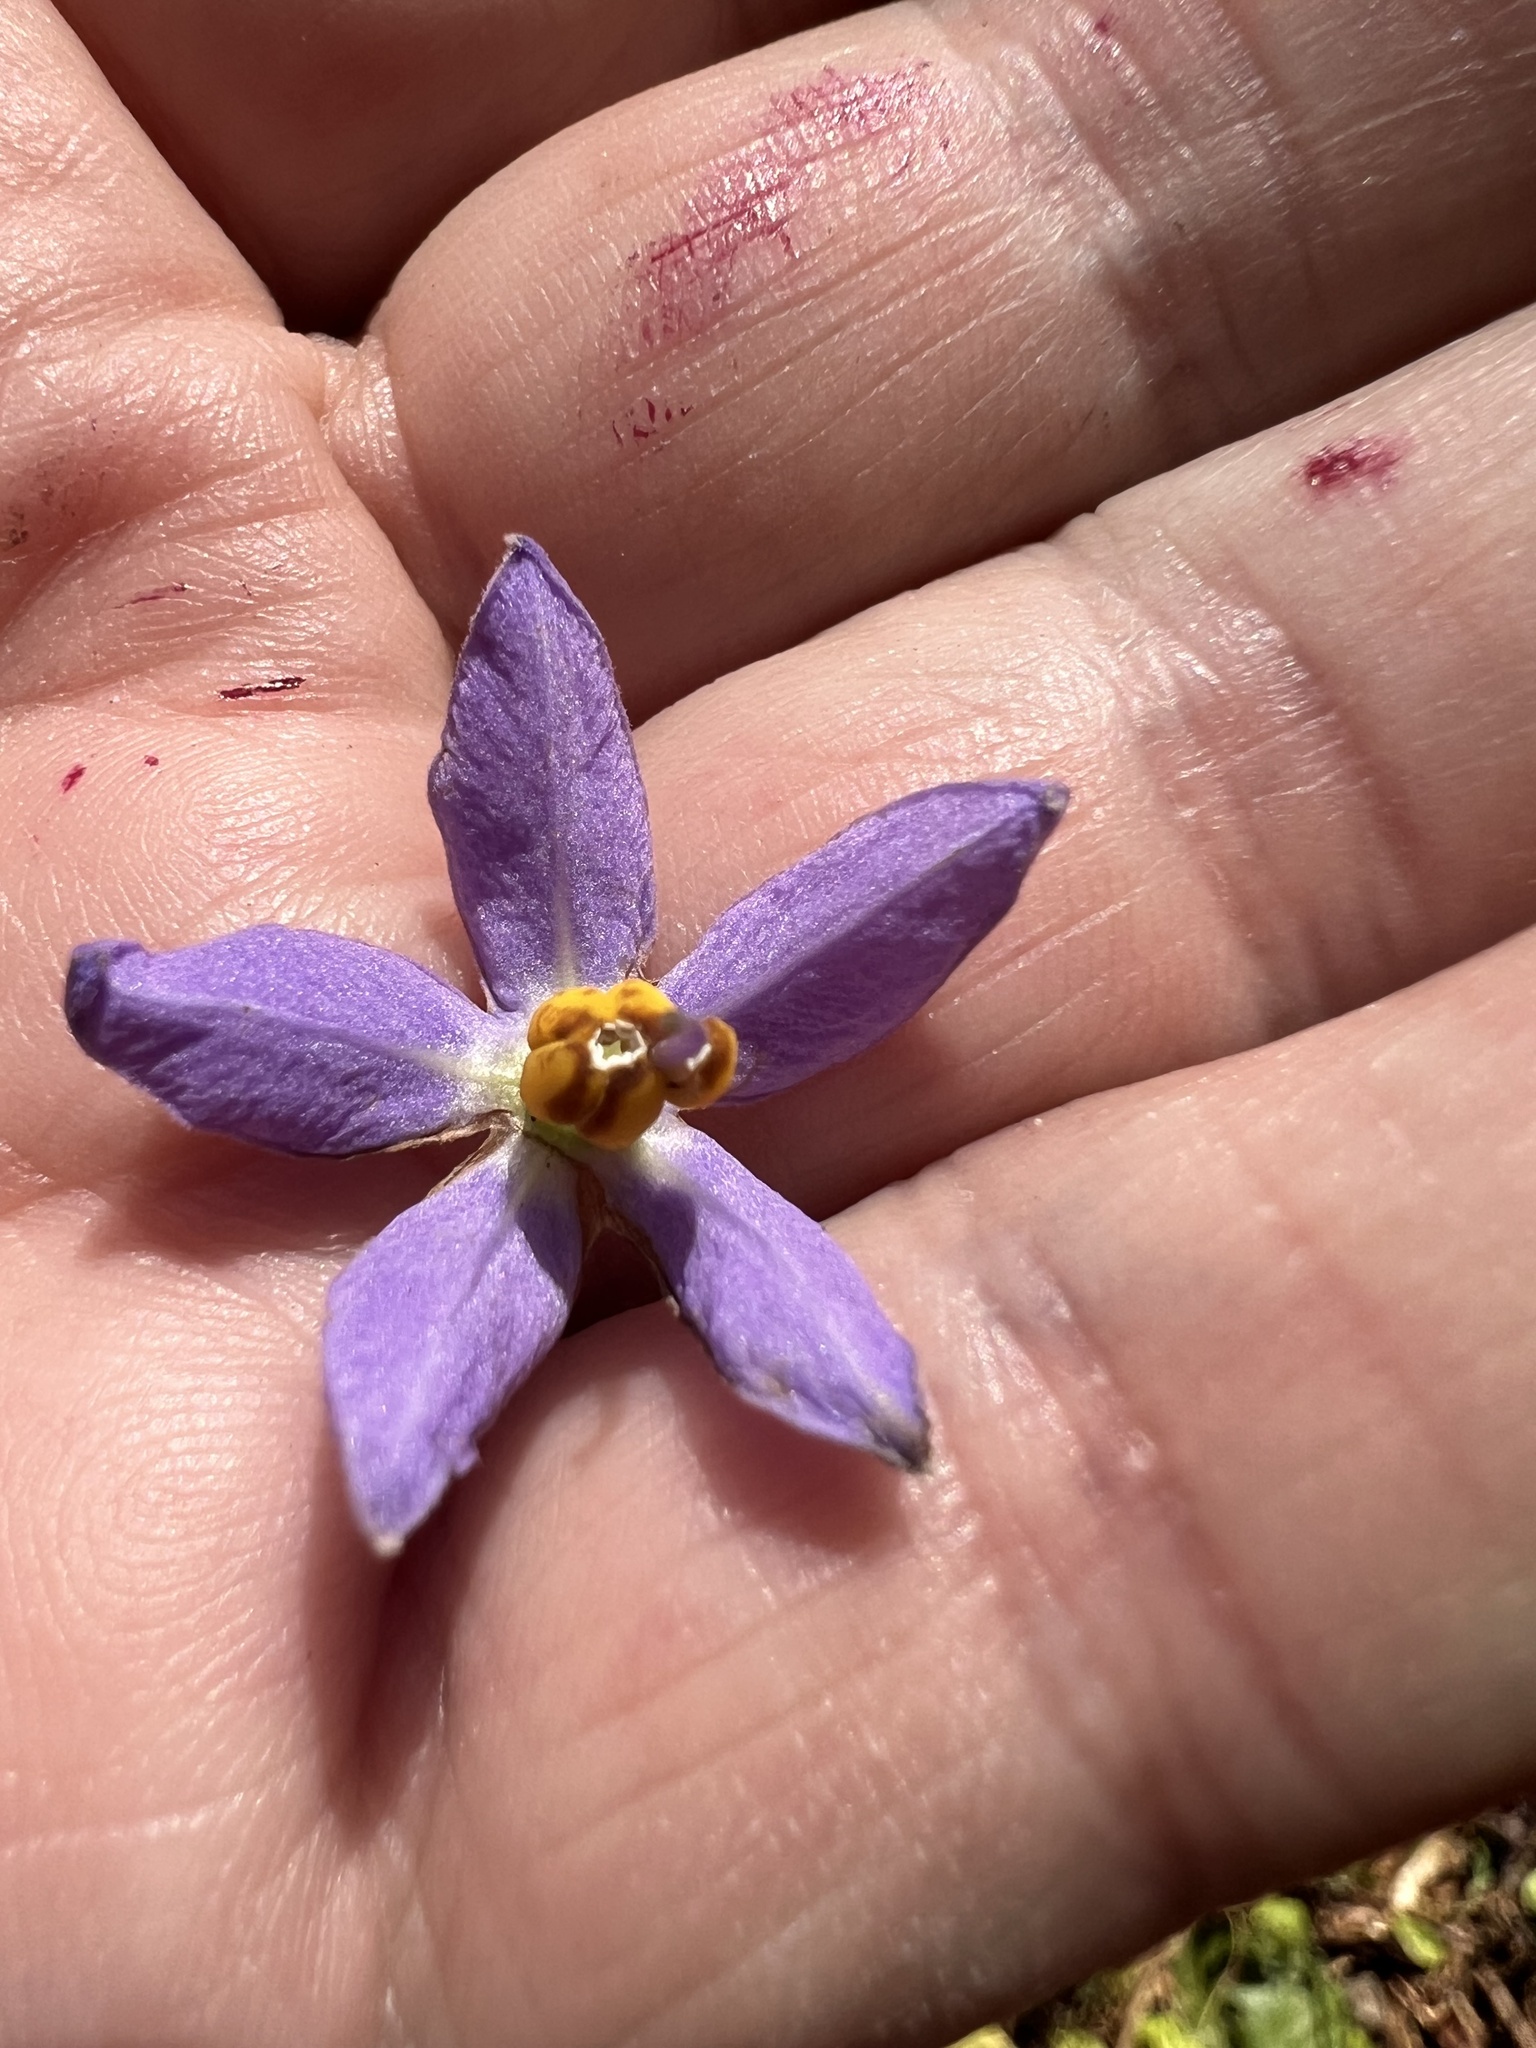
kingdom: Plantae
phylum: Tracheophyta
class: Magnoliopsida
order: Solanales
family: Solanaceae
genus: Solanum
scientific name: Solanum seaforthianum
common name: Brazilian nightshade
